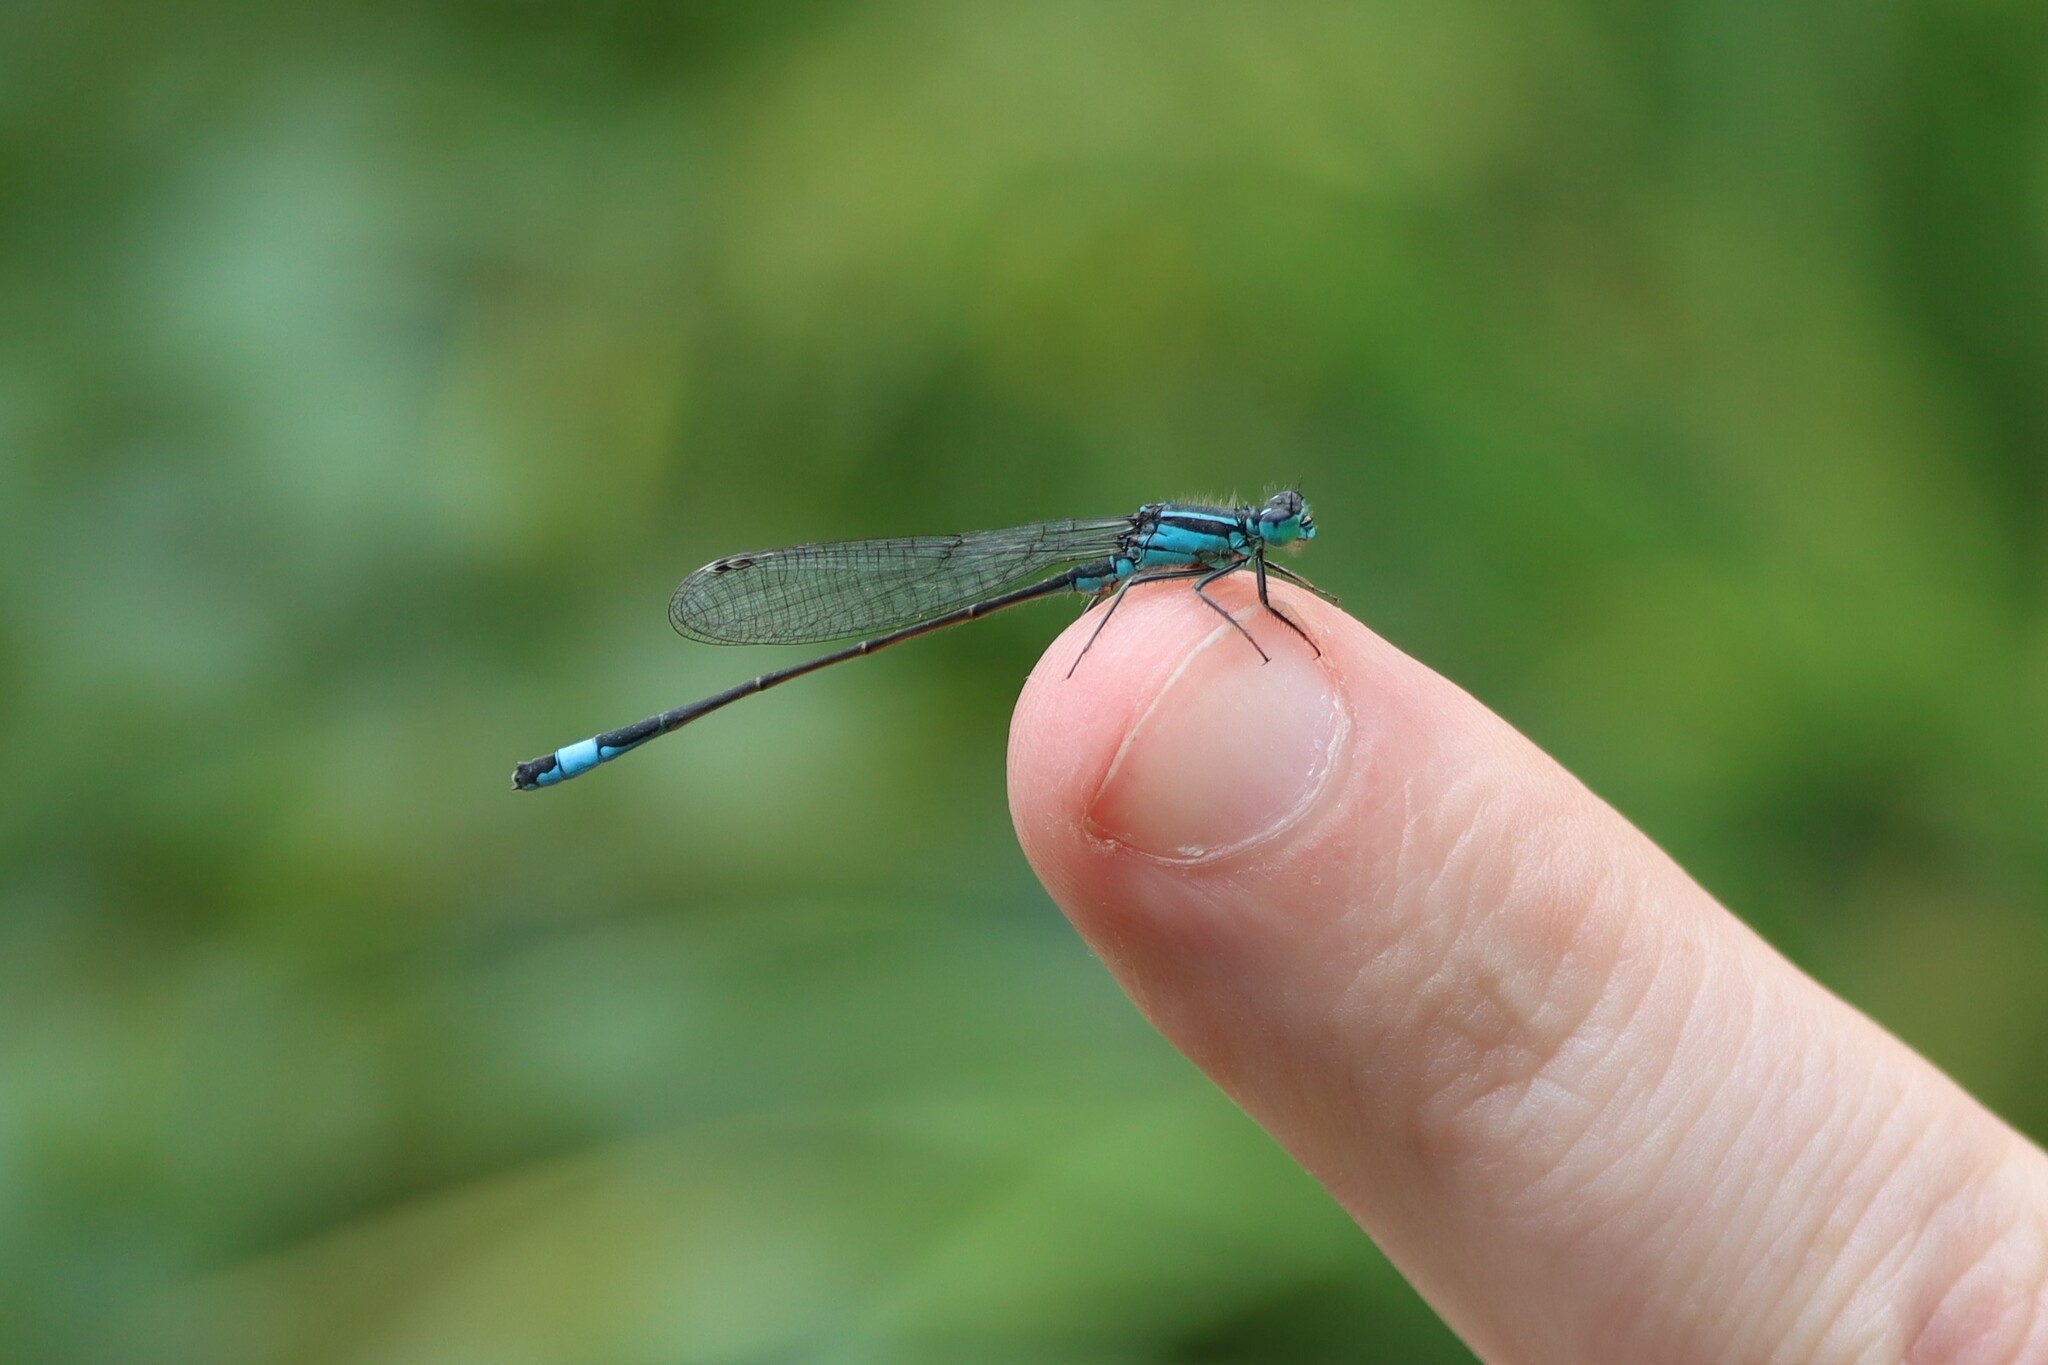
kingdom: Animalia
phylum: Arthropoda
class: Insecta
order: Odonata
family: Coenagrionidae
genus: Ischnura
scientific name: Ischnura elegans
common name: Blue-tailed damselfly
